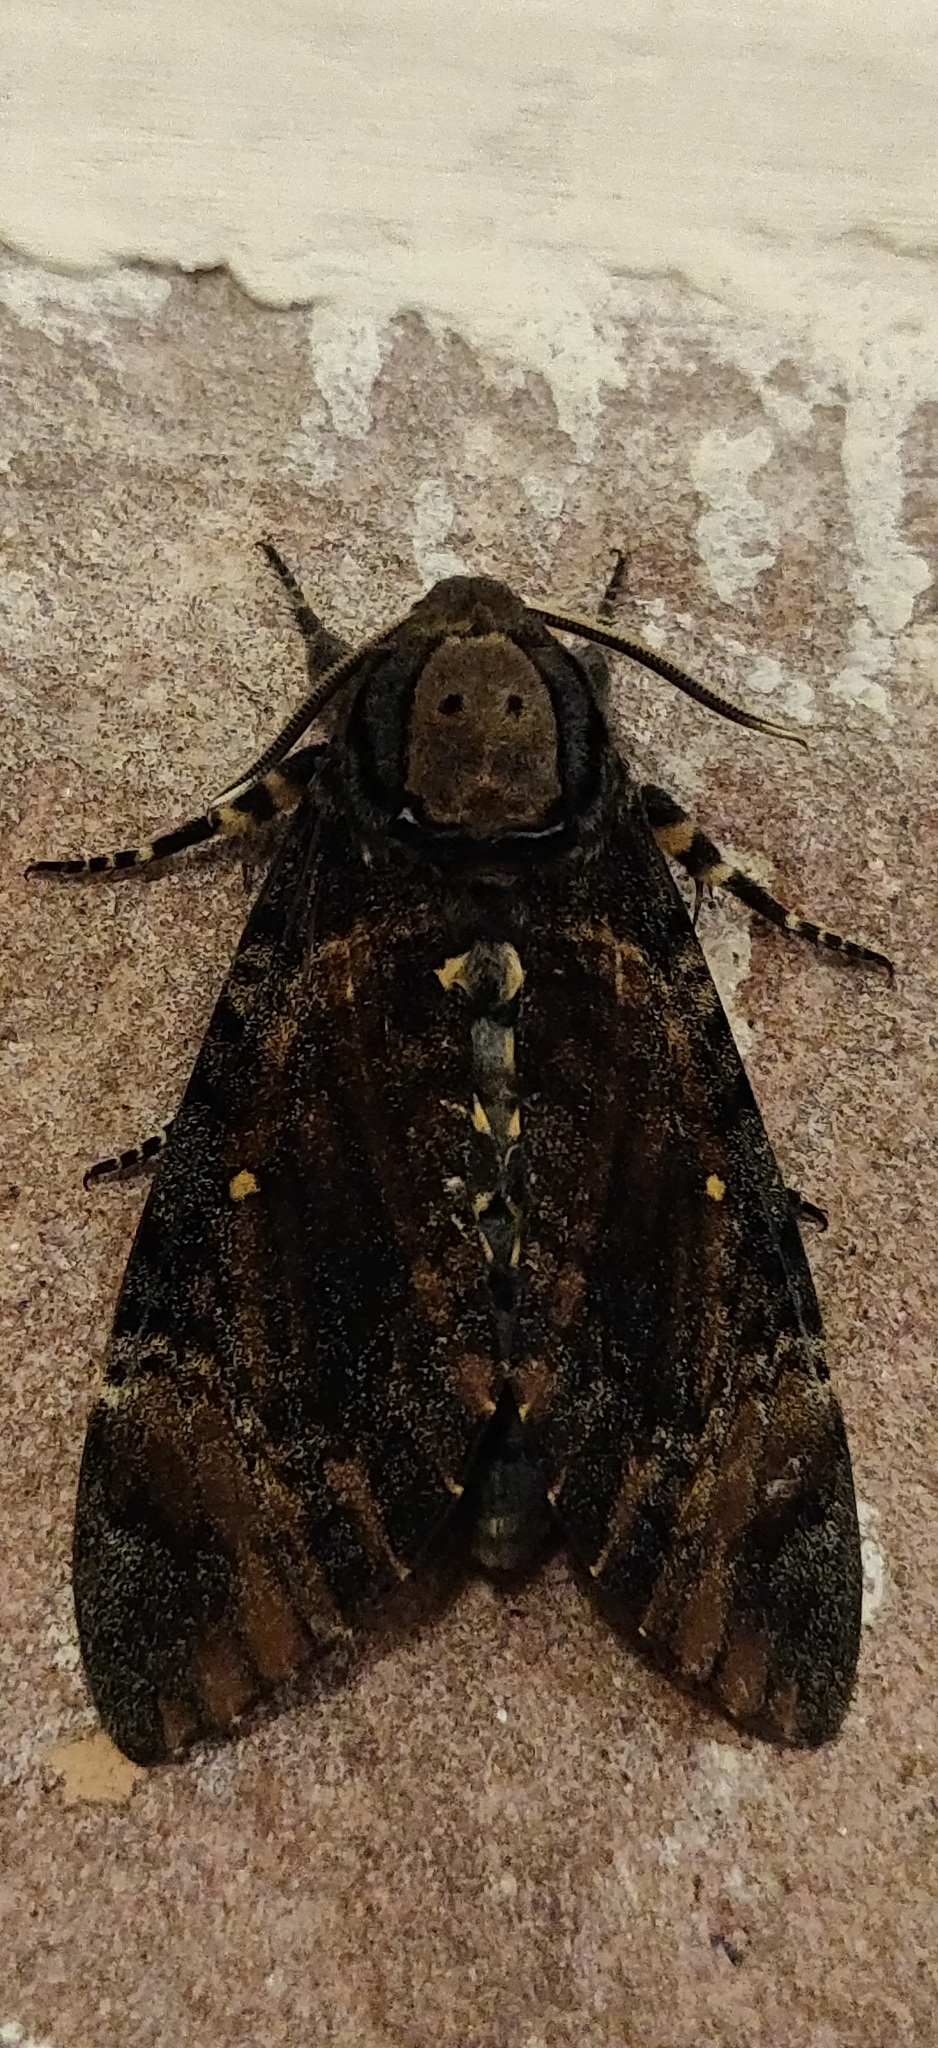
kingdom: Animalia
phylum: Arthropoda
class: Insecta
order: Lepidoptera
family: Sphingidae
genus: Acherontia
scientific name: Acherontia styx
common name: Death's-head hawk moth
